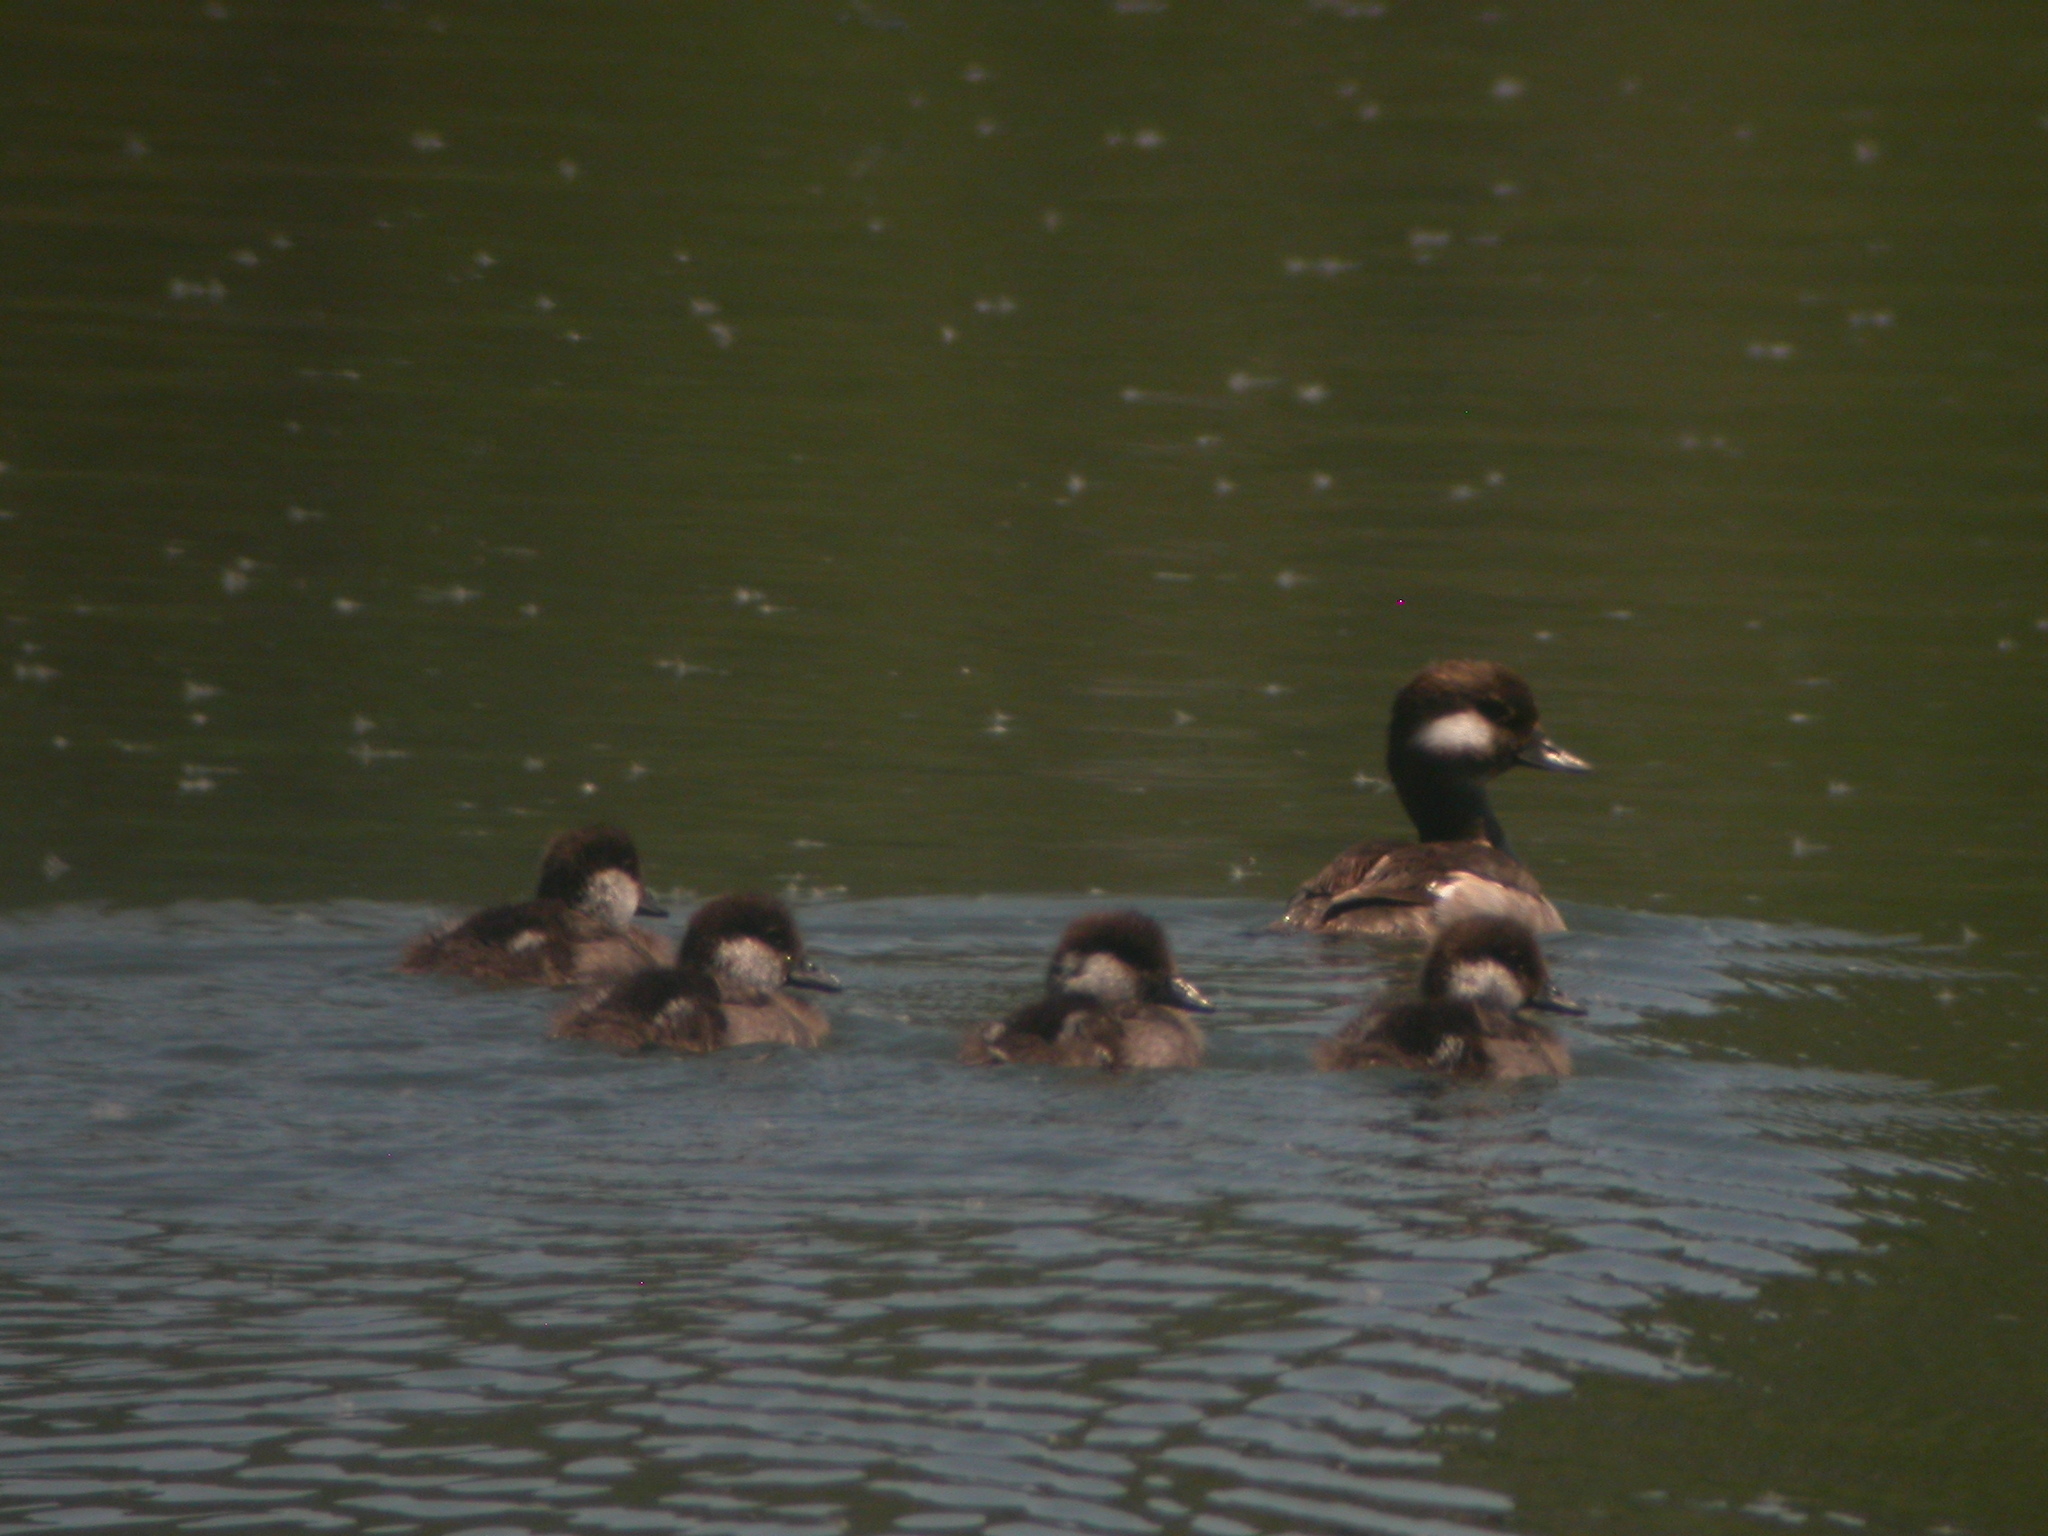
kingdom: Animalia
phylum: Chordata
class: Aves
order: Anseriformes
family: Anatidae
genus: Bucephala
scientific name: Bucephala albeola
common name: Bufflehead
